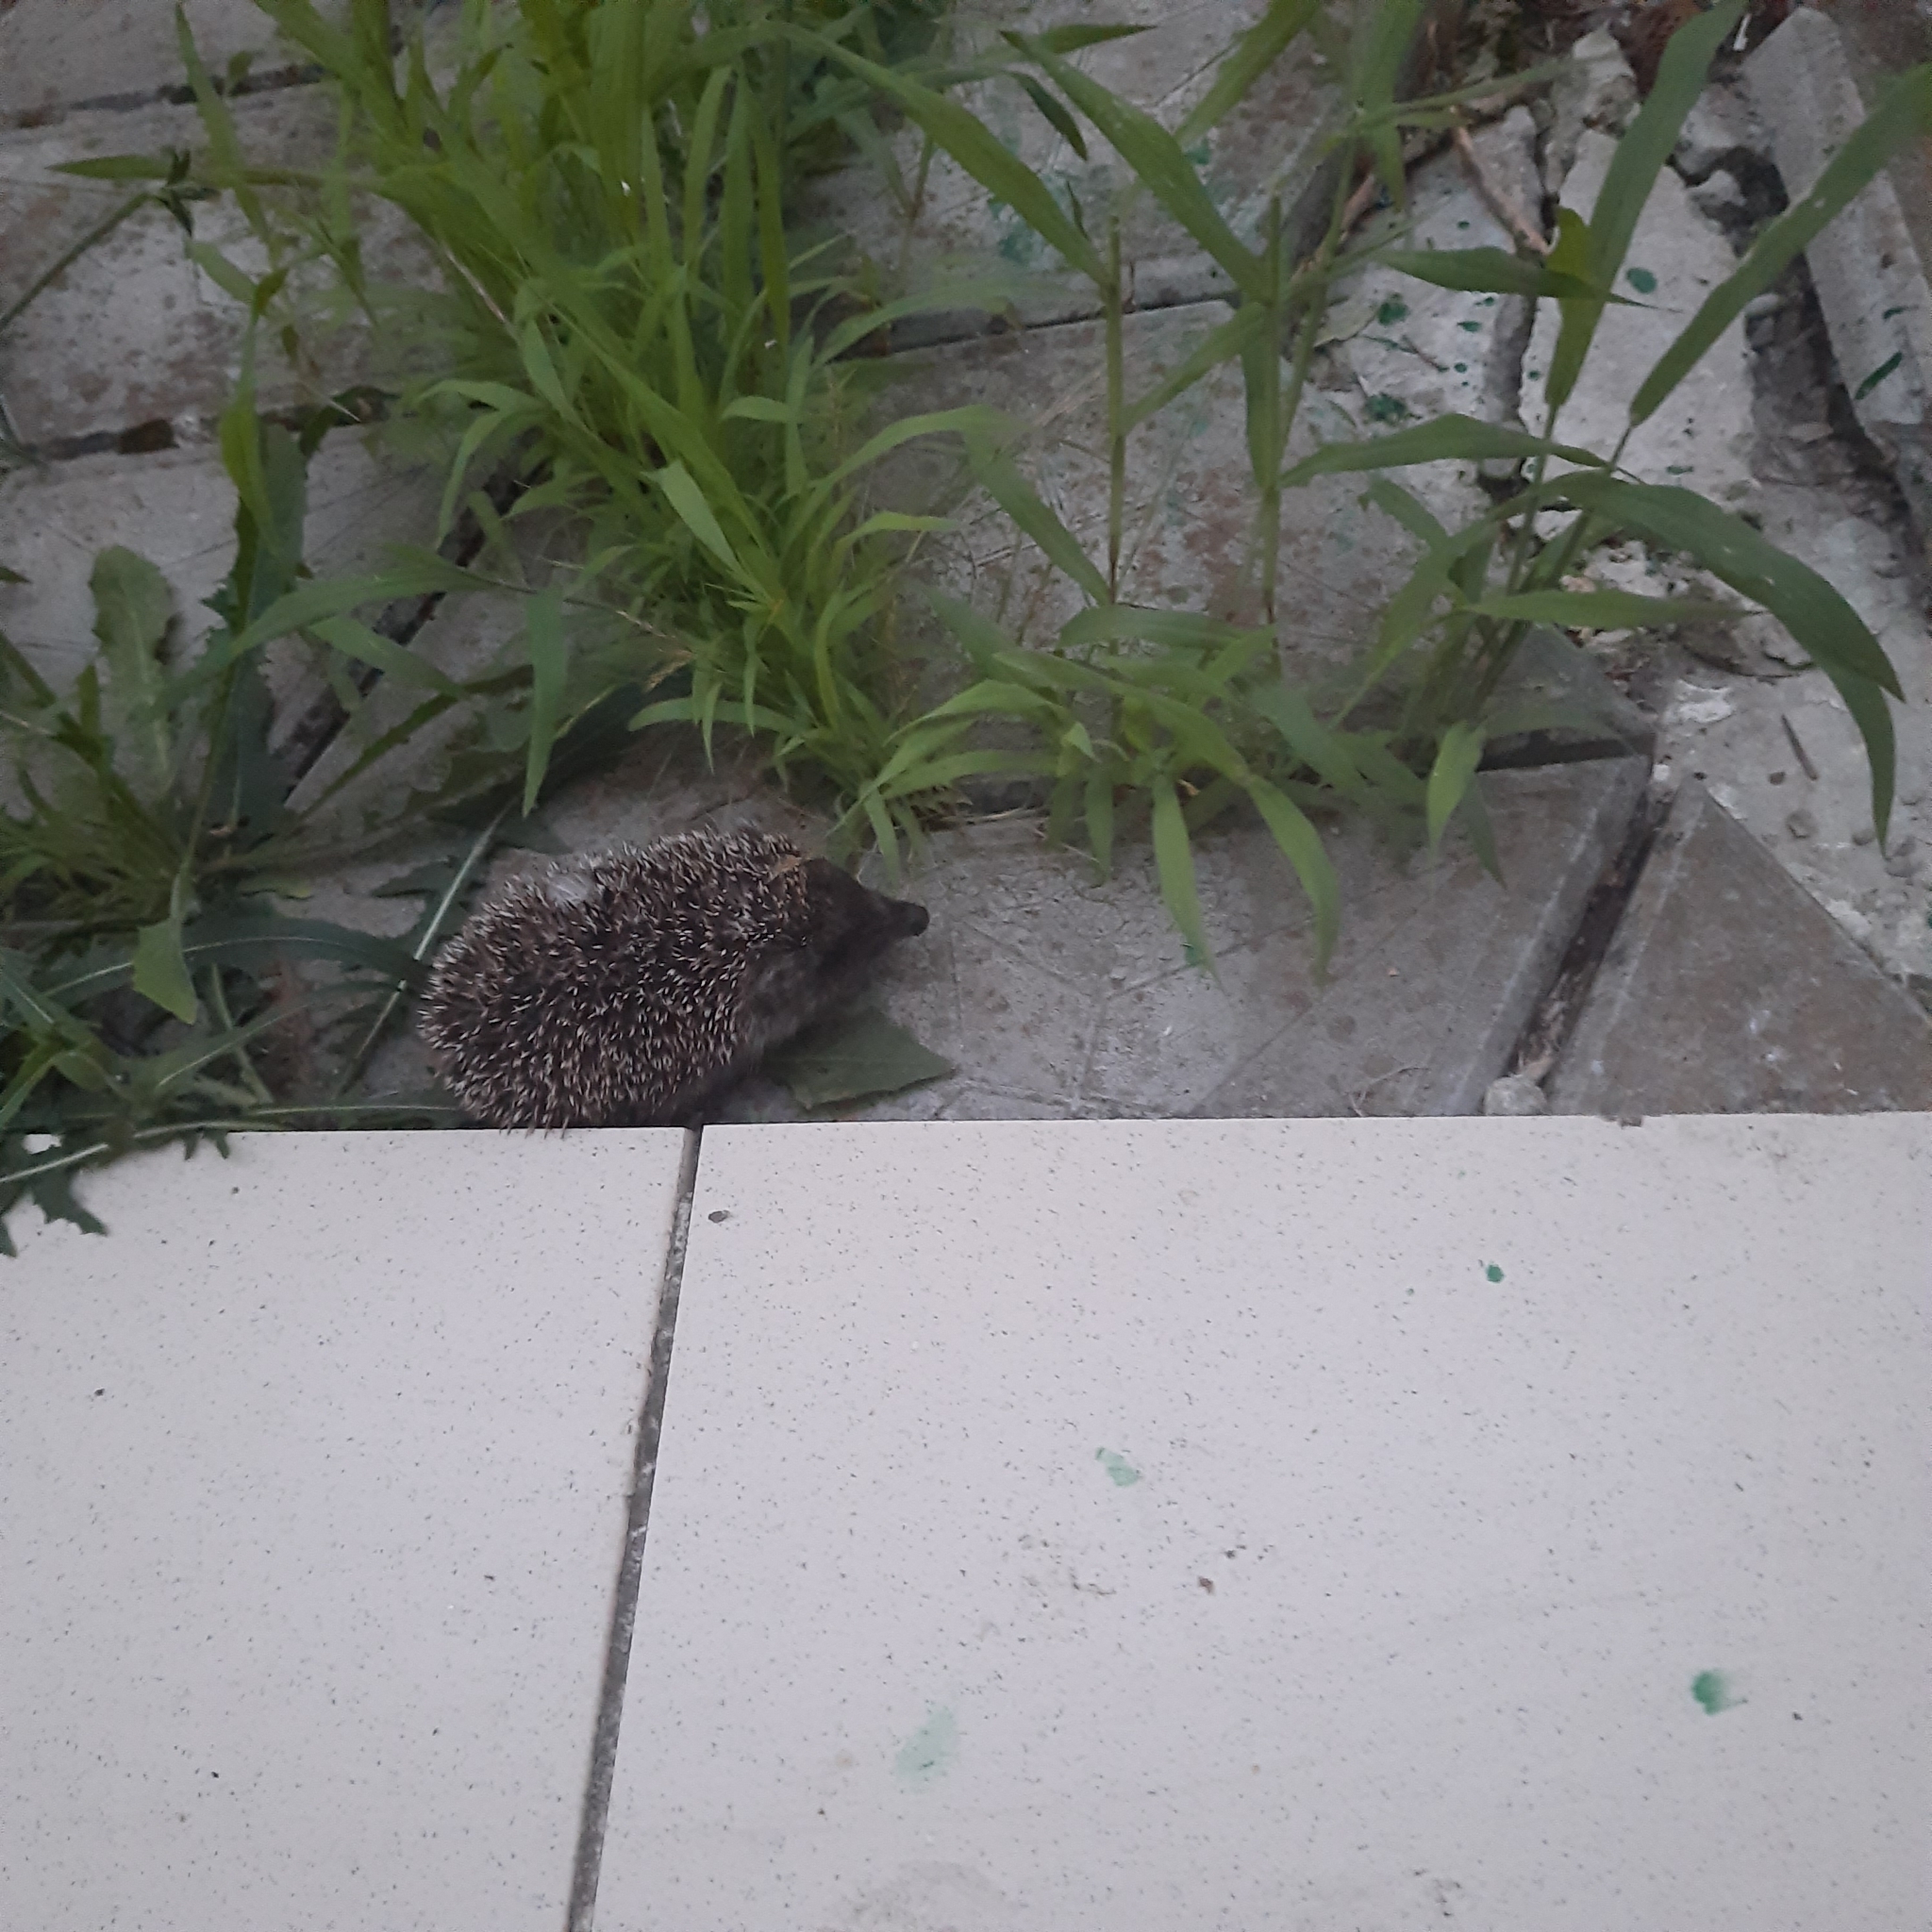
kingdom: Animalia
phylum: Chordata
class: Mammalia
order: Erinaceomorpha
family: Erinaceidae
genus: Erinaceus
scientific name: Erinaceus roumanicus
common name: Northern white-breasted hedgehog
